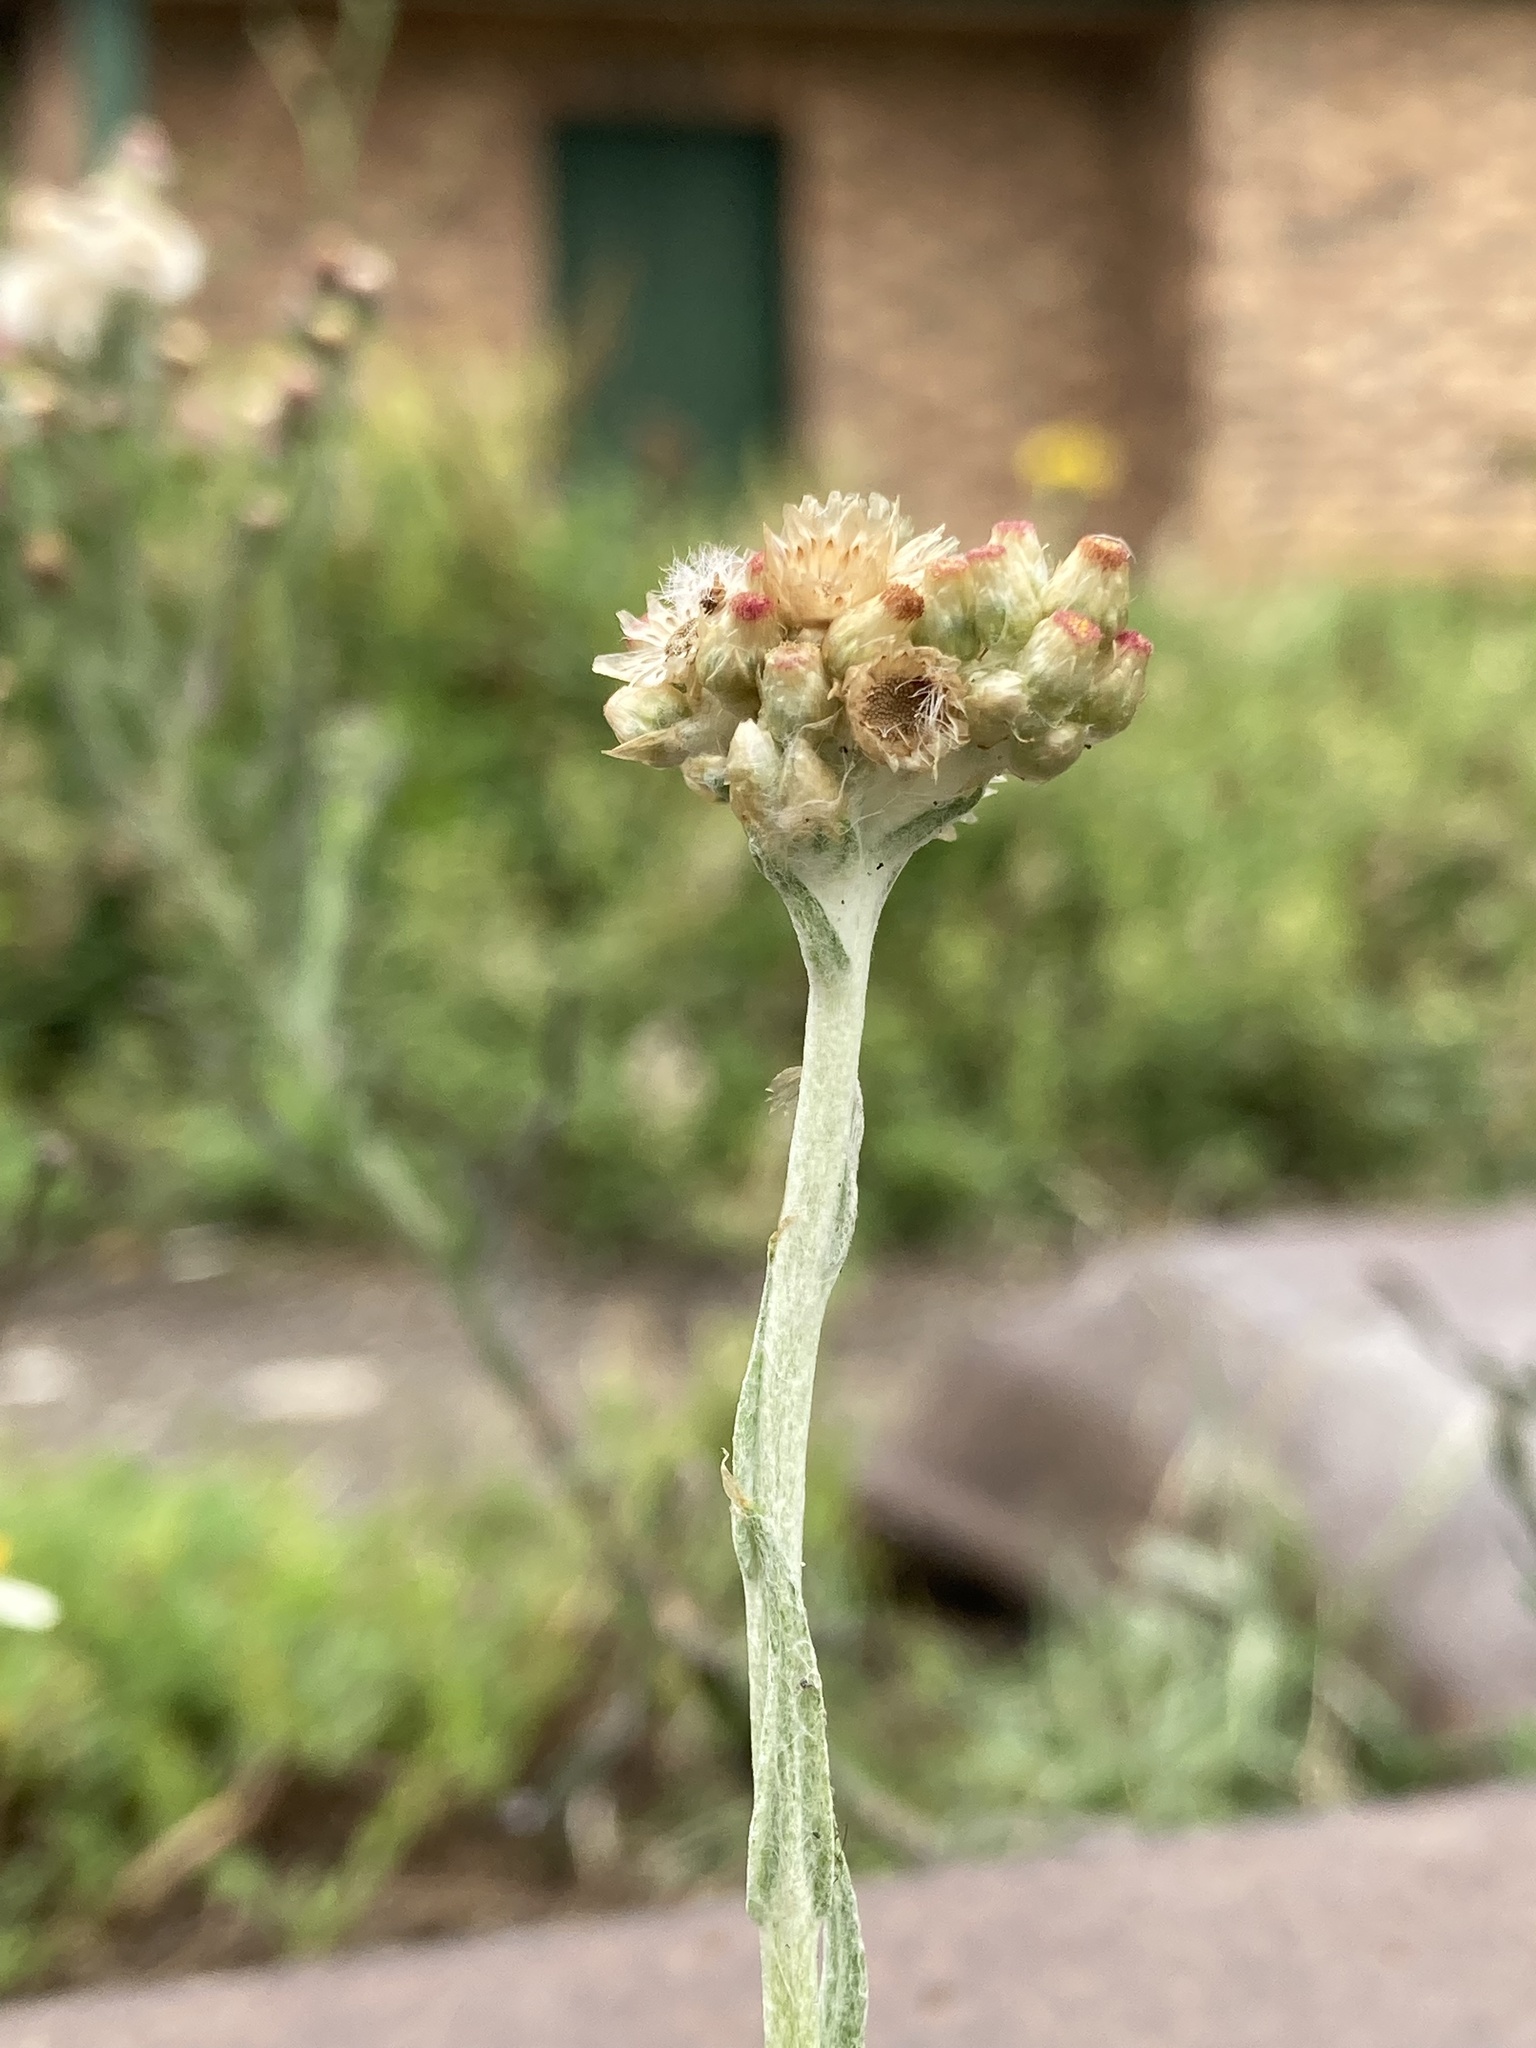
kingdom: Plantae
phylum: Tracheophyta
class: Magnoliopsida
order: Asterales
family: Asteraceae
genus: Helichrysum
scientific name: Helichrysum luteoalbum
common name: Daisy
